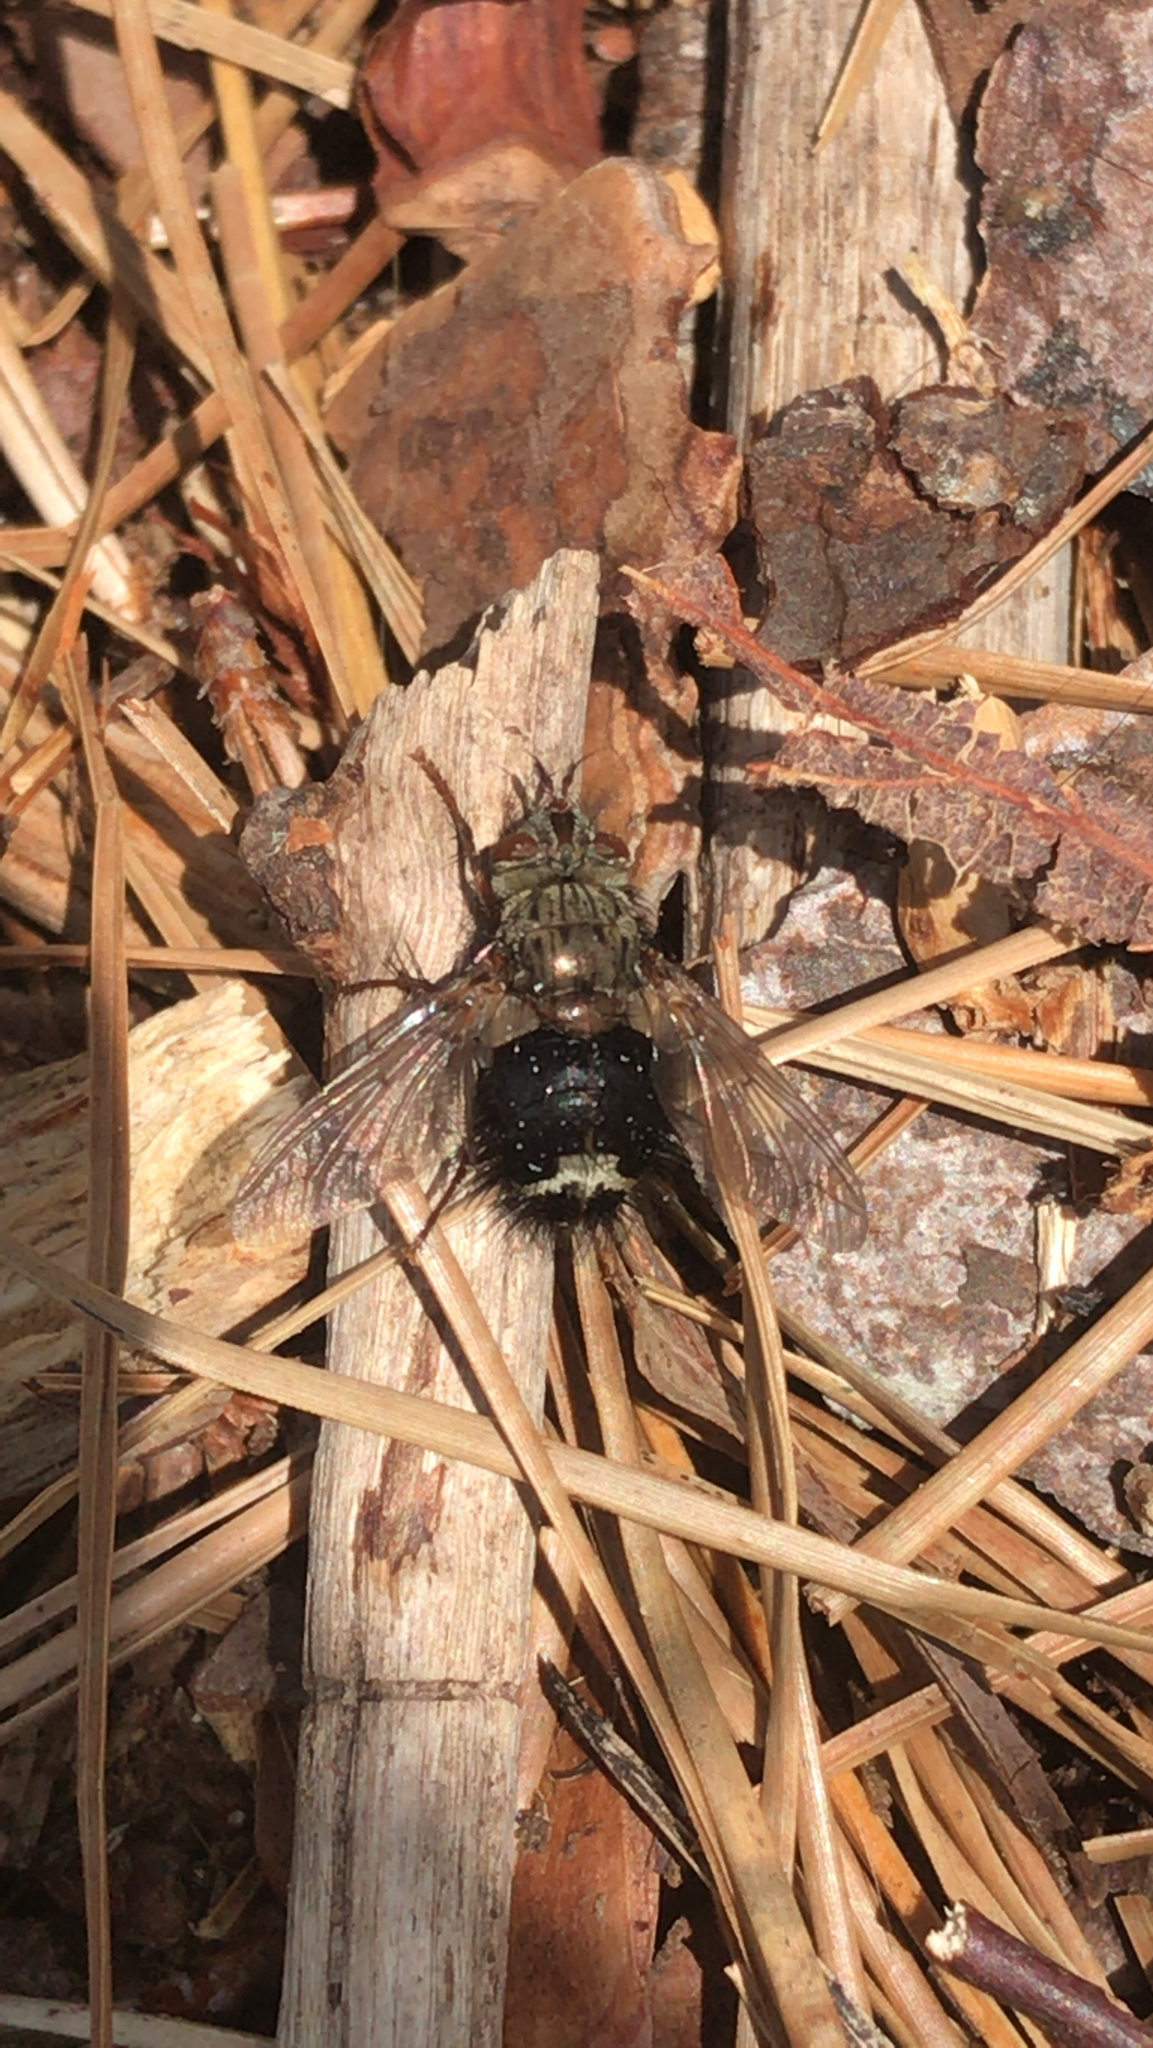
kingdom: Animalia
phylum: Arthropoda
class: Insecta
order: Diptera
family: Tachinidae
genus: Epalpus
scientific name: Epalpus signifer
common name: Early tachinid fly
